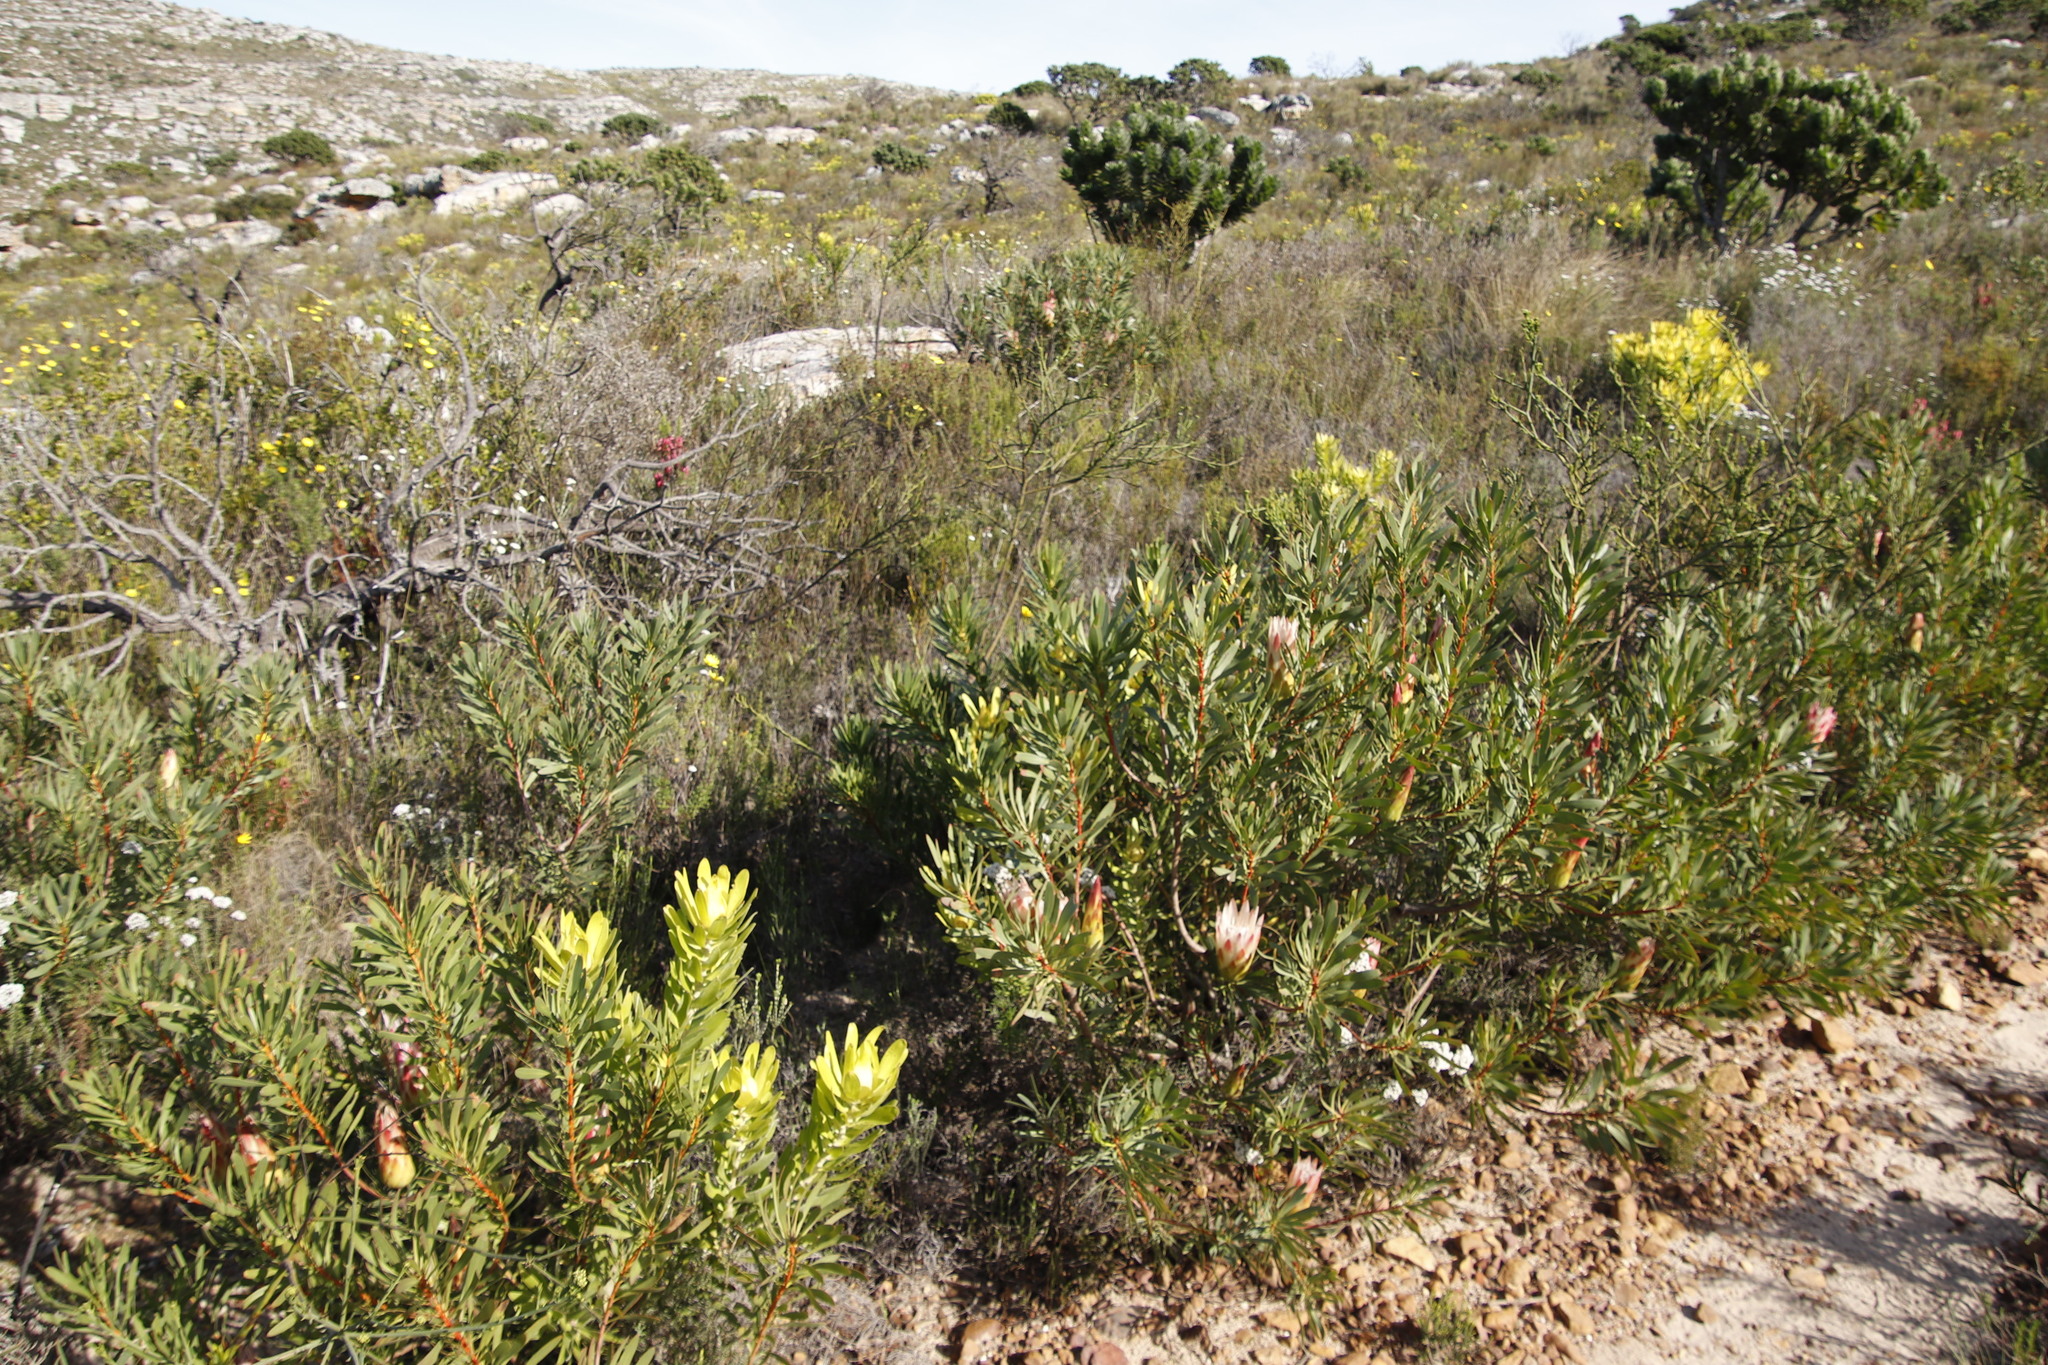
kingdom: Plantae
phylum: Tracheophyta
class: Magnoliopsida
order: Proteales
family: Proteaceae
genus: Leucadendron
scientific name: Leucadendron laureolum
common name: Golden sunshinebush
